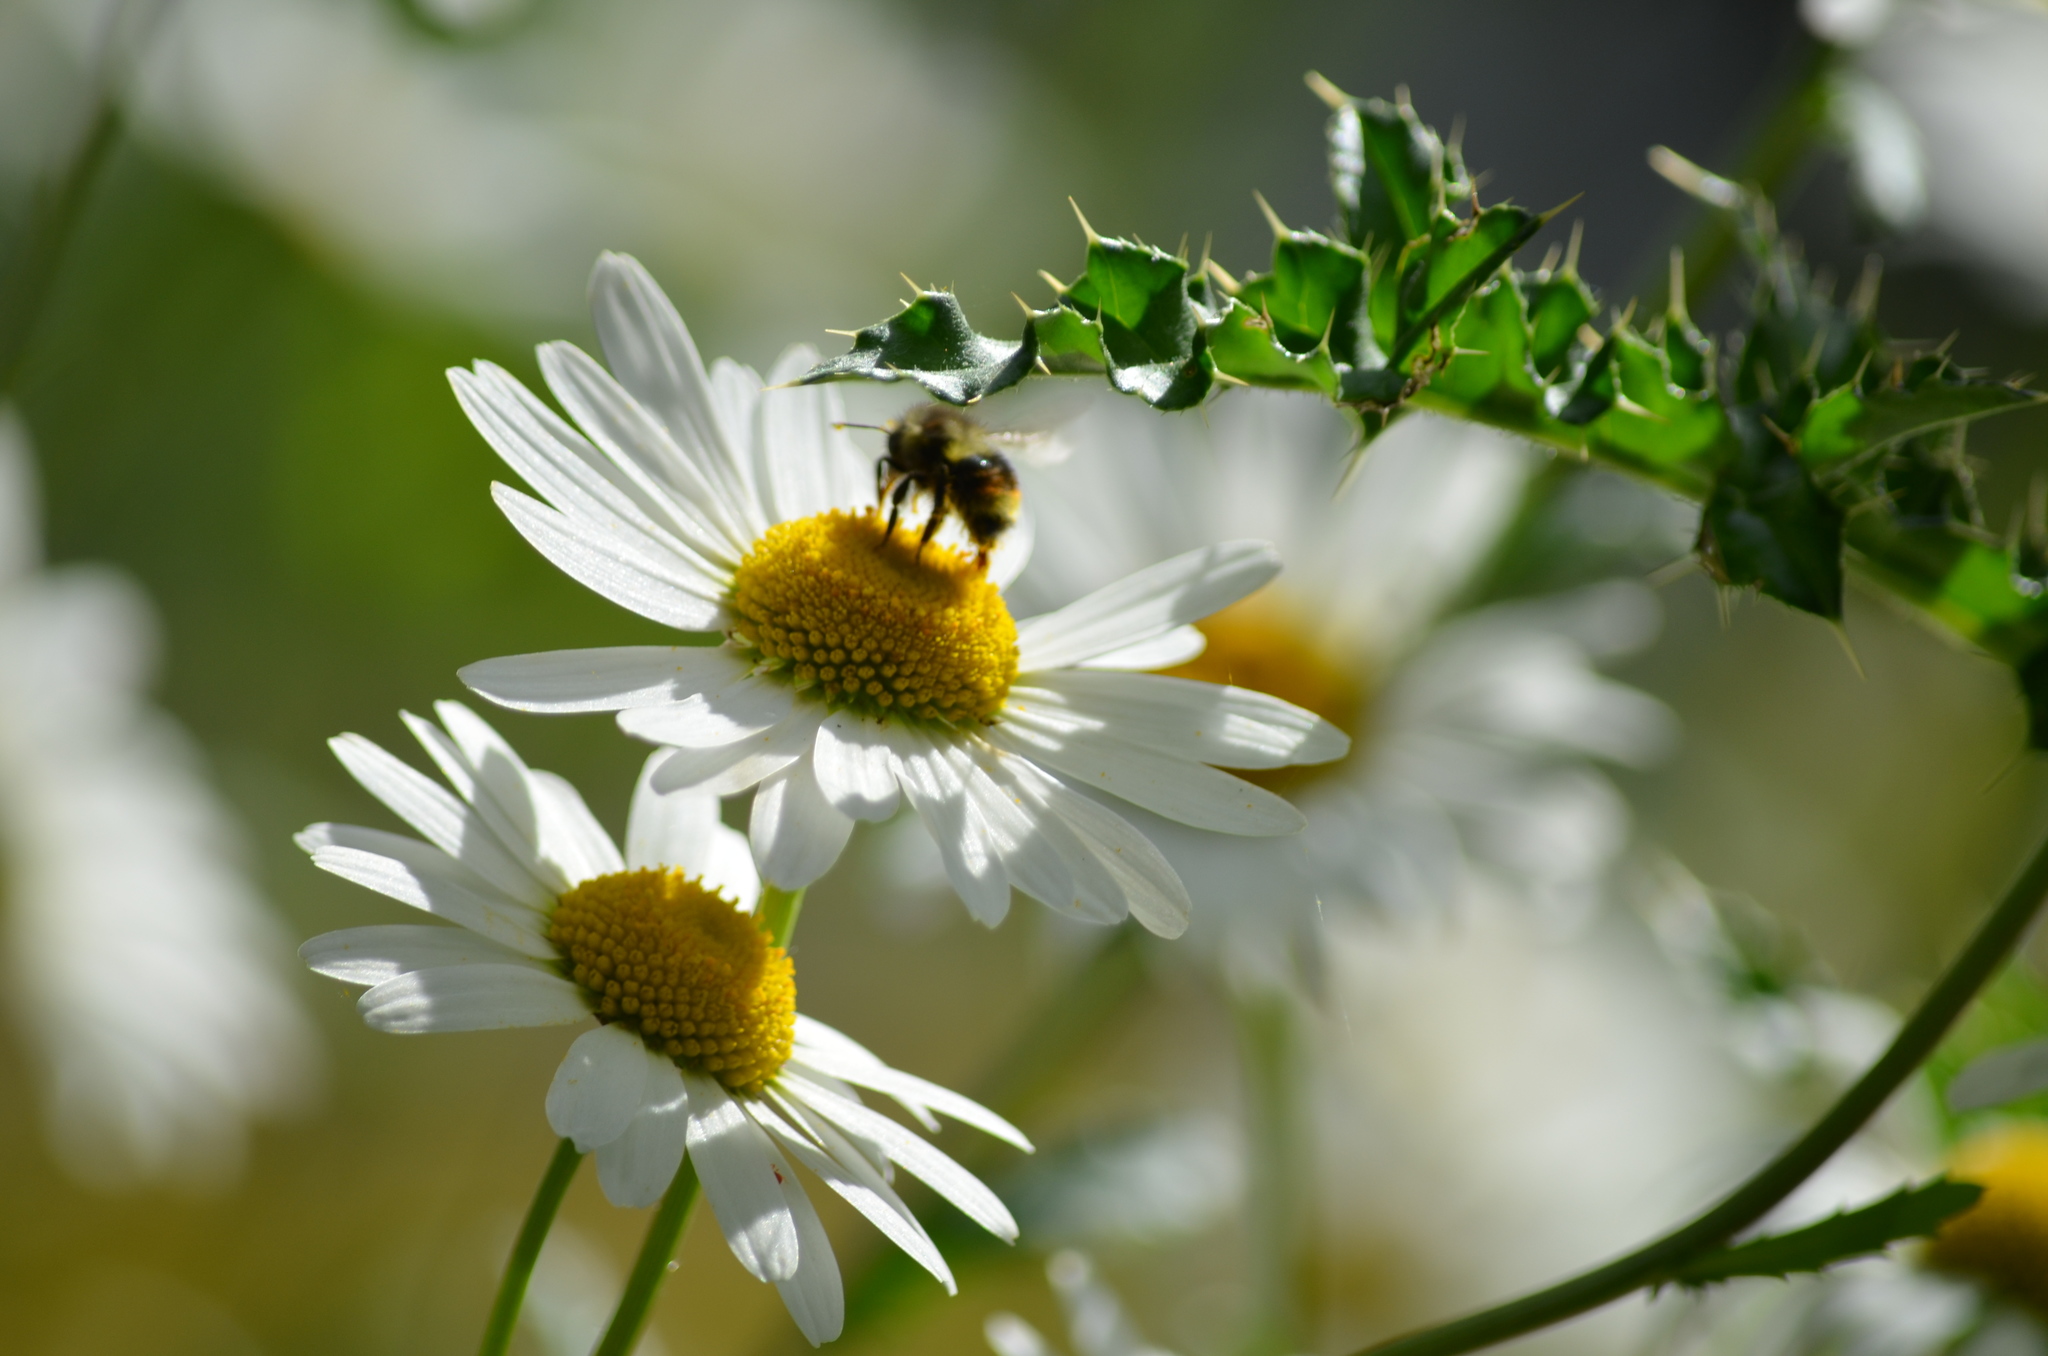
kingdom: Animalia
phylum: Arthropoda
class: Insecta
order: Hymenoptera
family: Apidae
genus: Bombus
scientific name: Bombus vancouverensis
